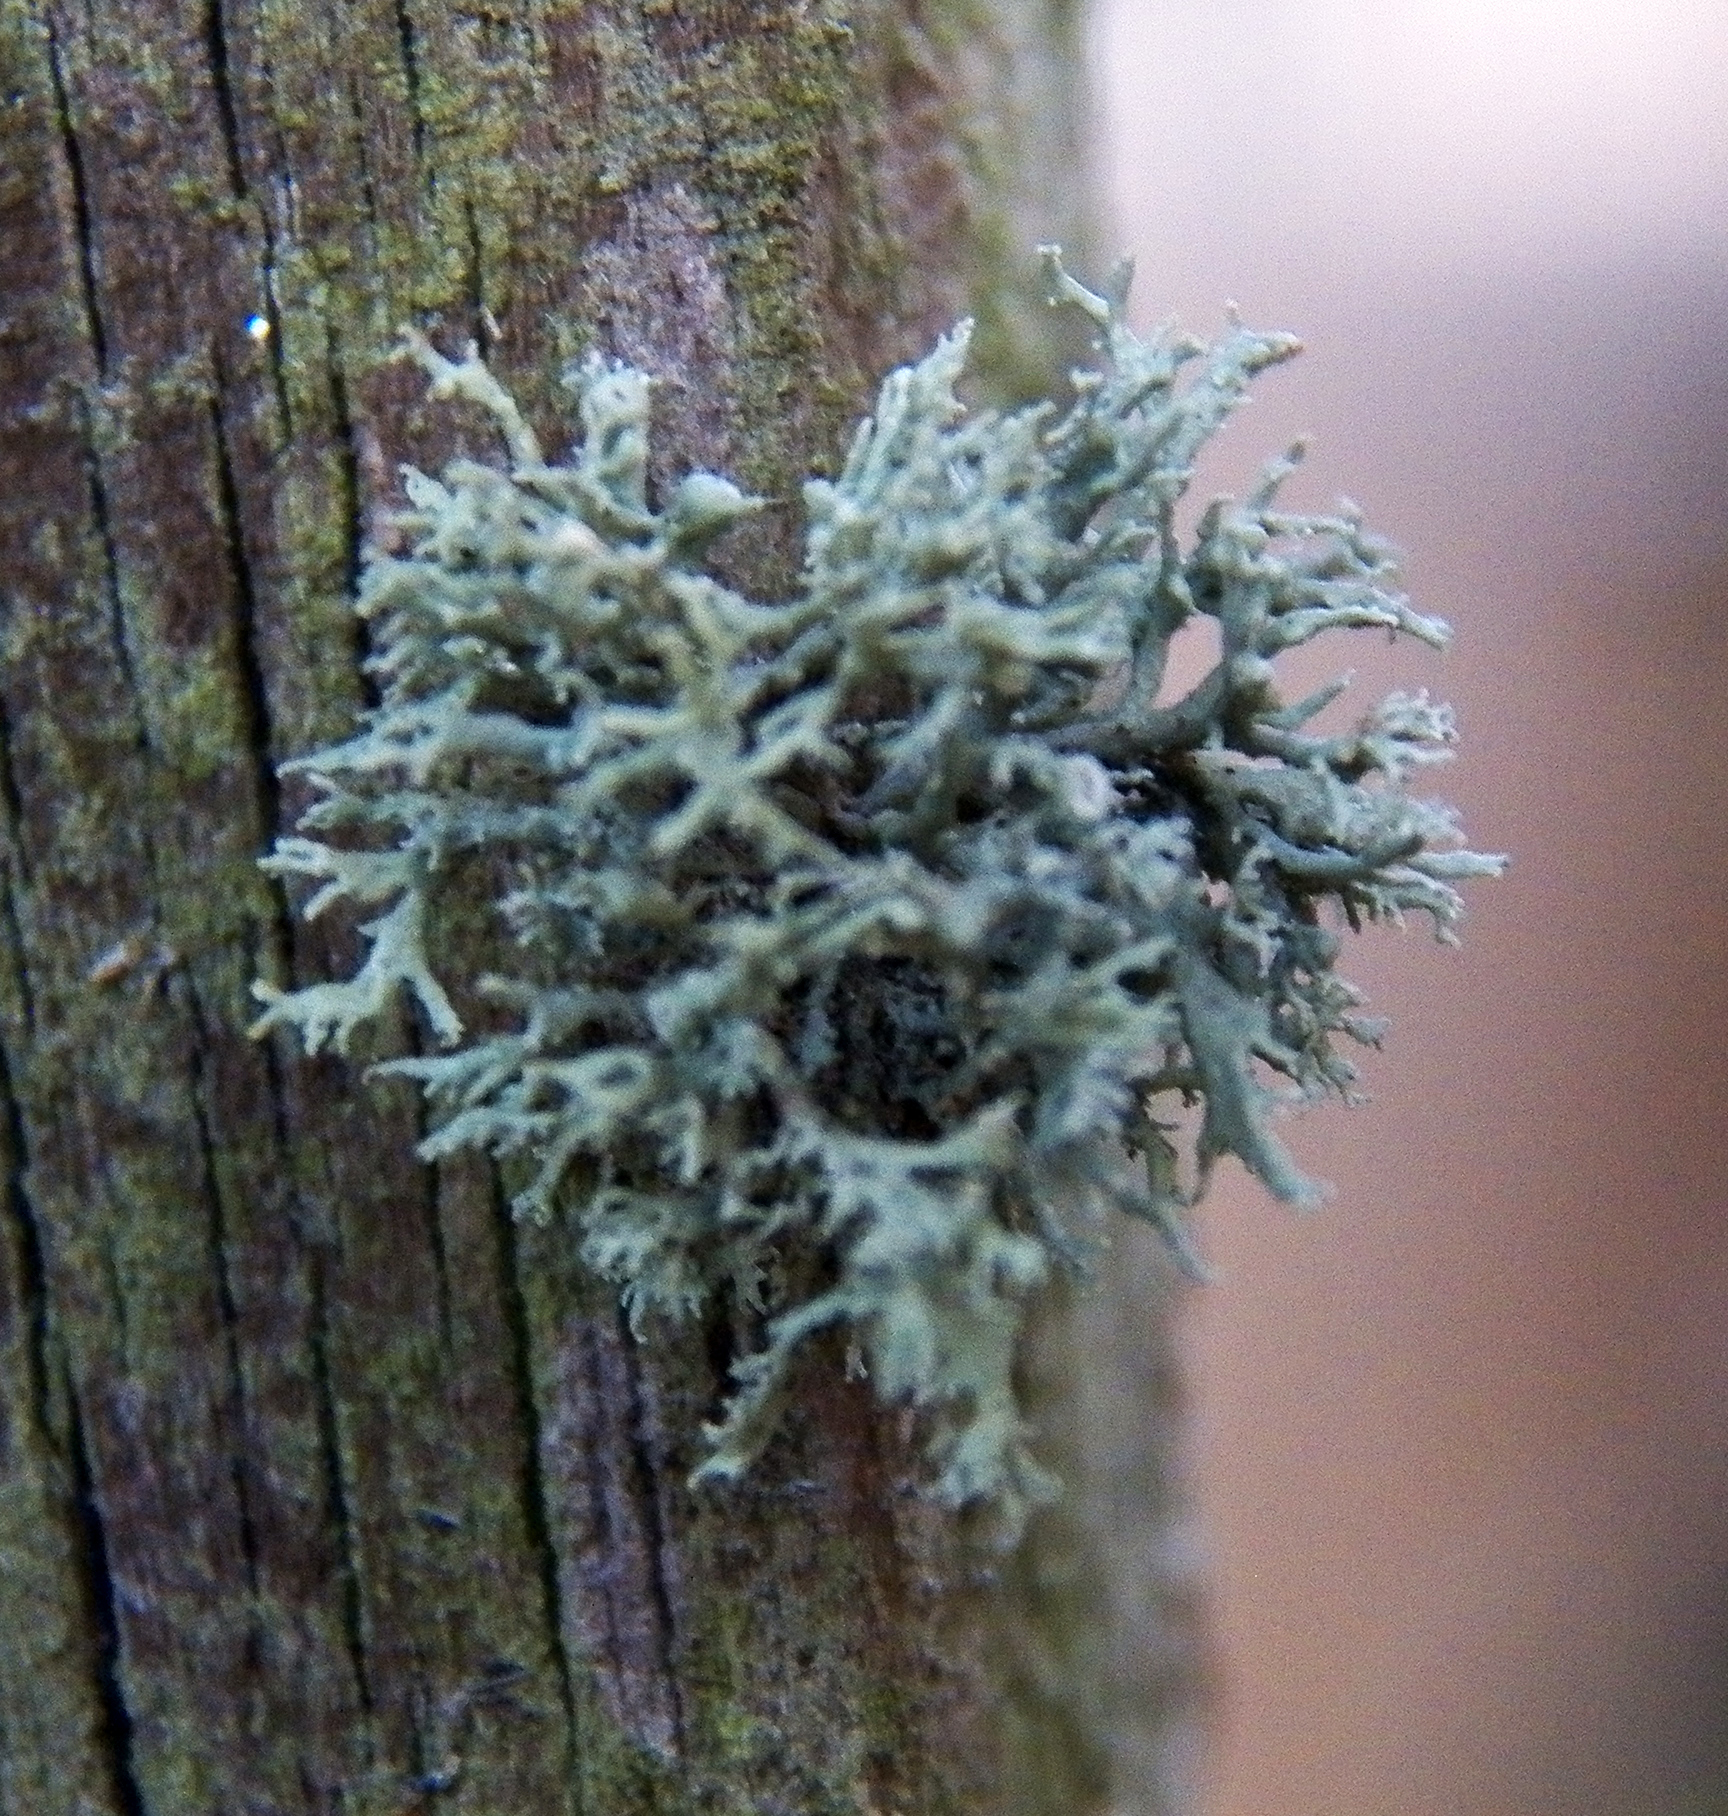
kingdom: Fungi
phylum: Ascomycota
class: Lecanoromycetes
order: Lecanorales
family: Parmeliaceae
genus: Evernia
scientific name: Evernia prunastri
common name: Oak moss
